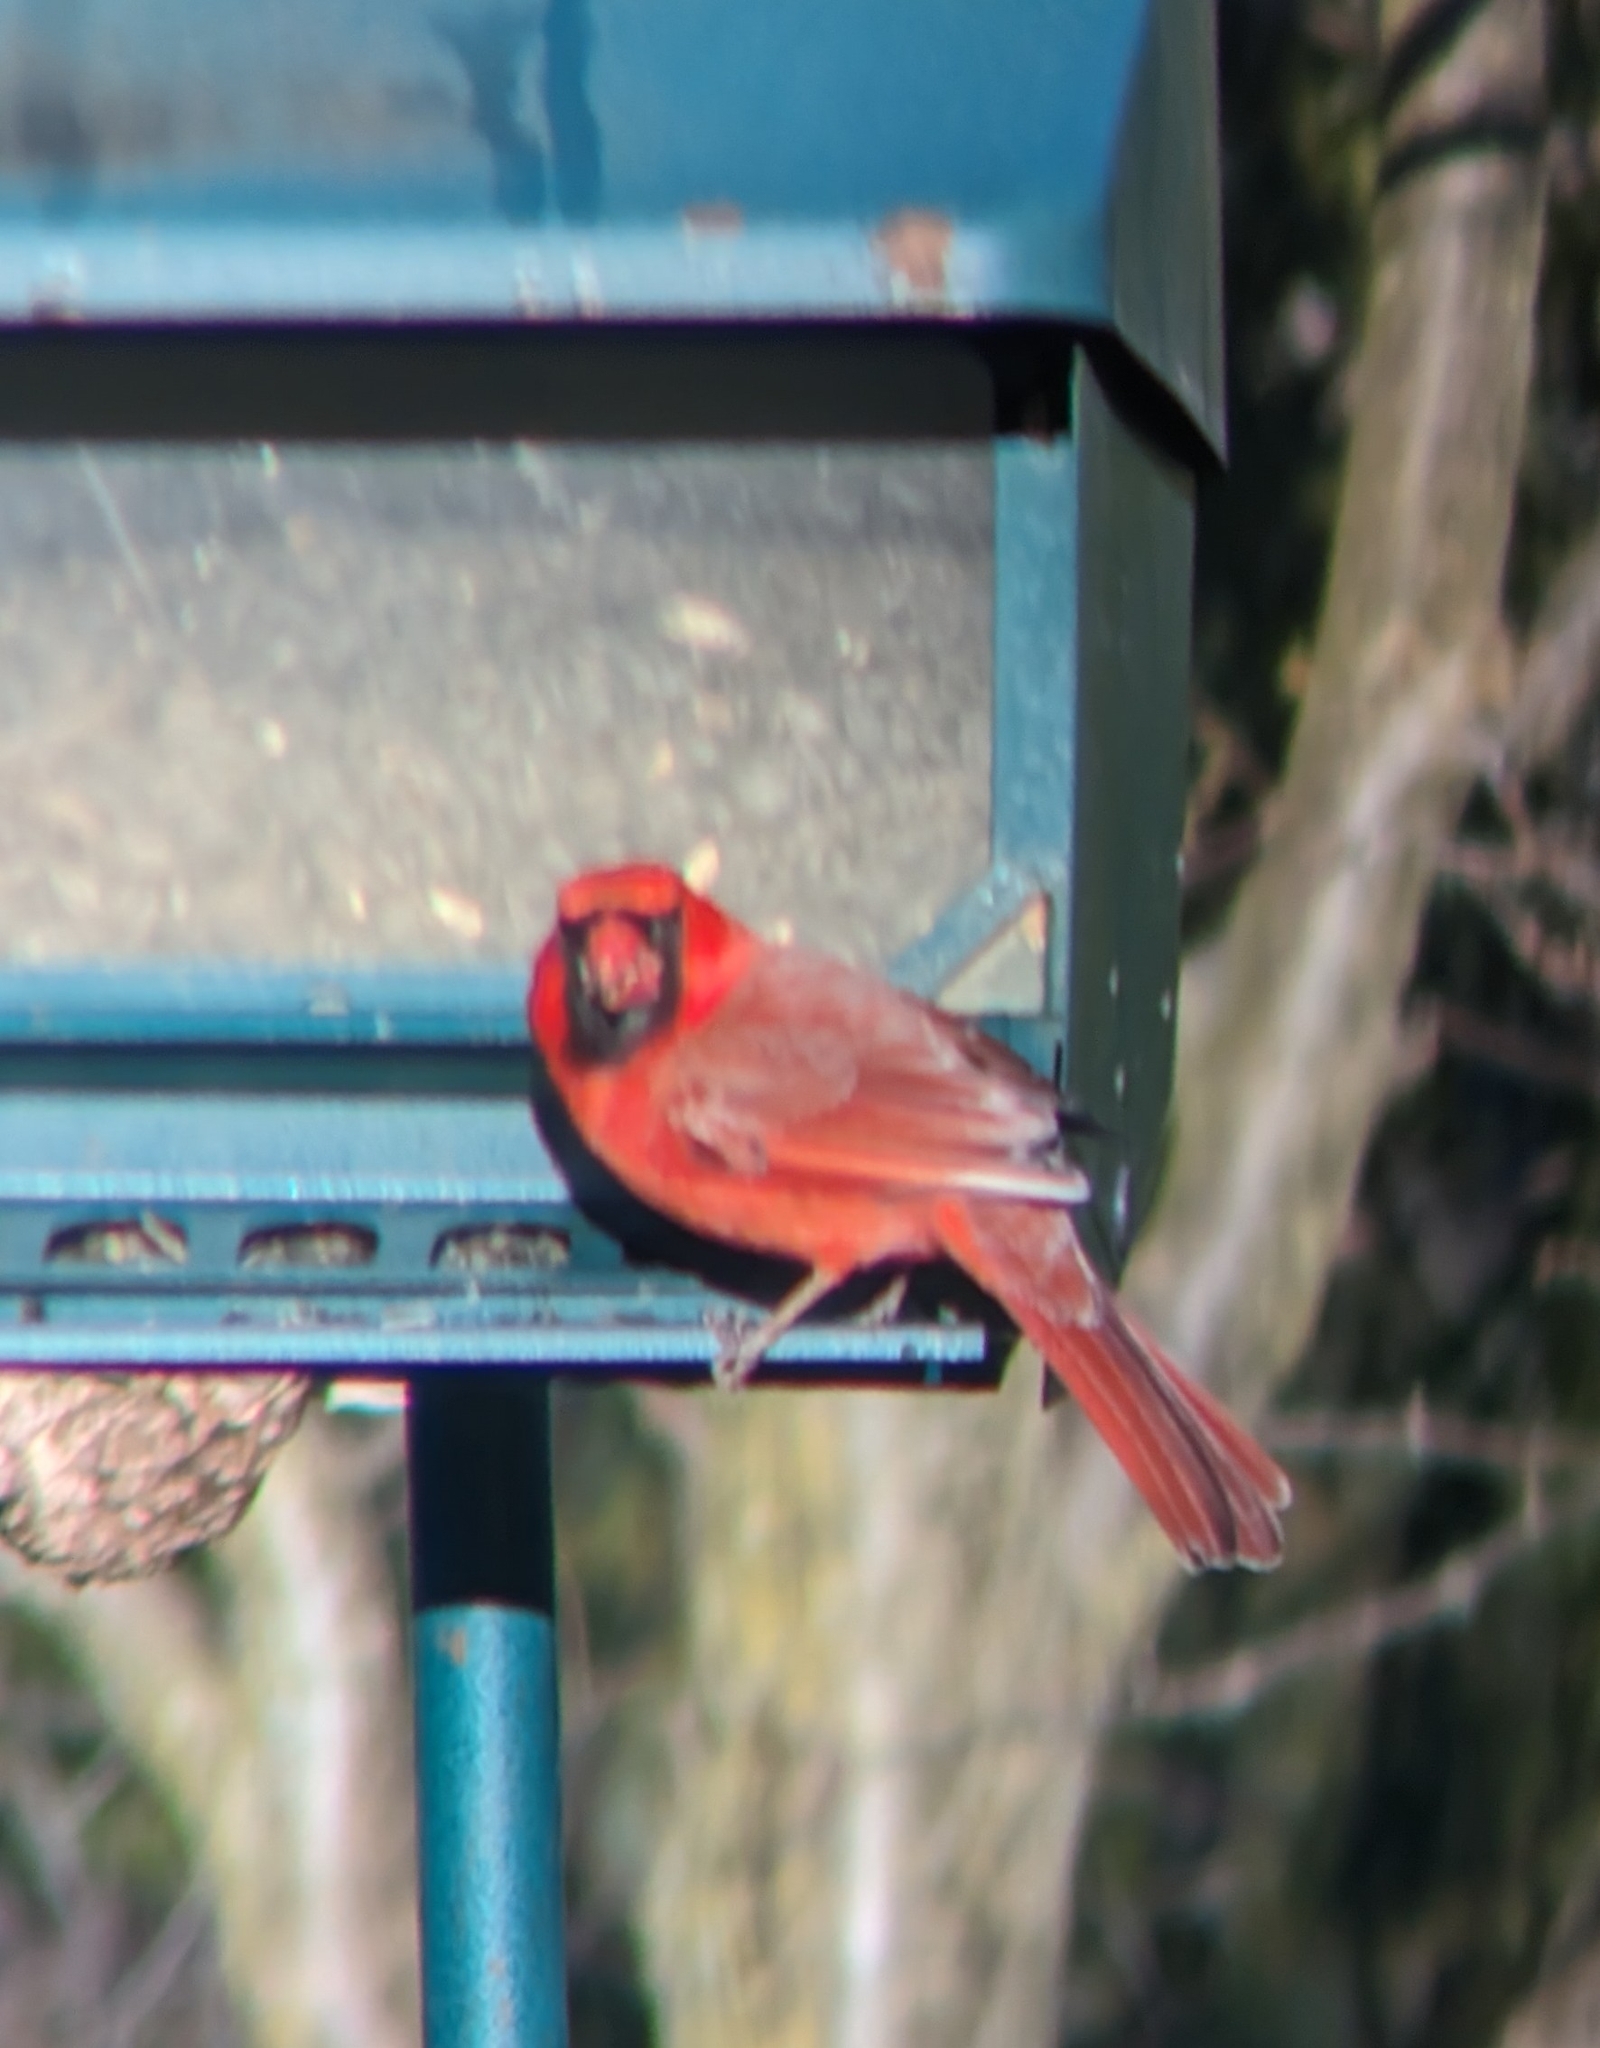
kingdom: Animalia
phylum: Chordata
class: Aves
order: Passeriformes
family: Cardinalidae
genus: Cardinalis
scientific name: Cardinalis cardinalis
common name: Northern cardinal
